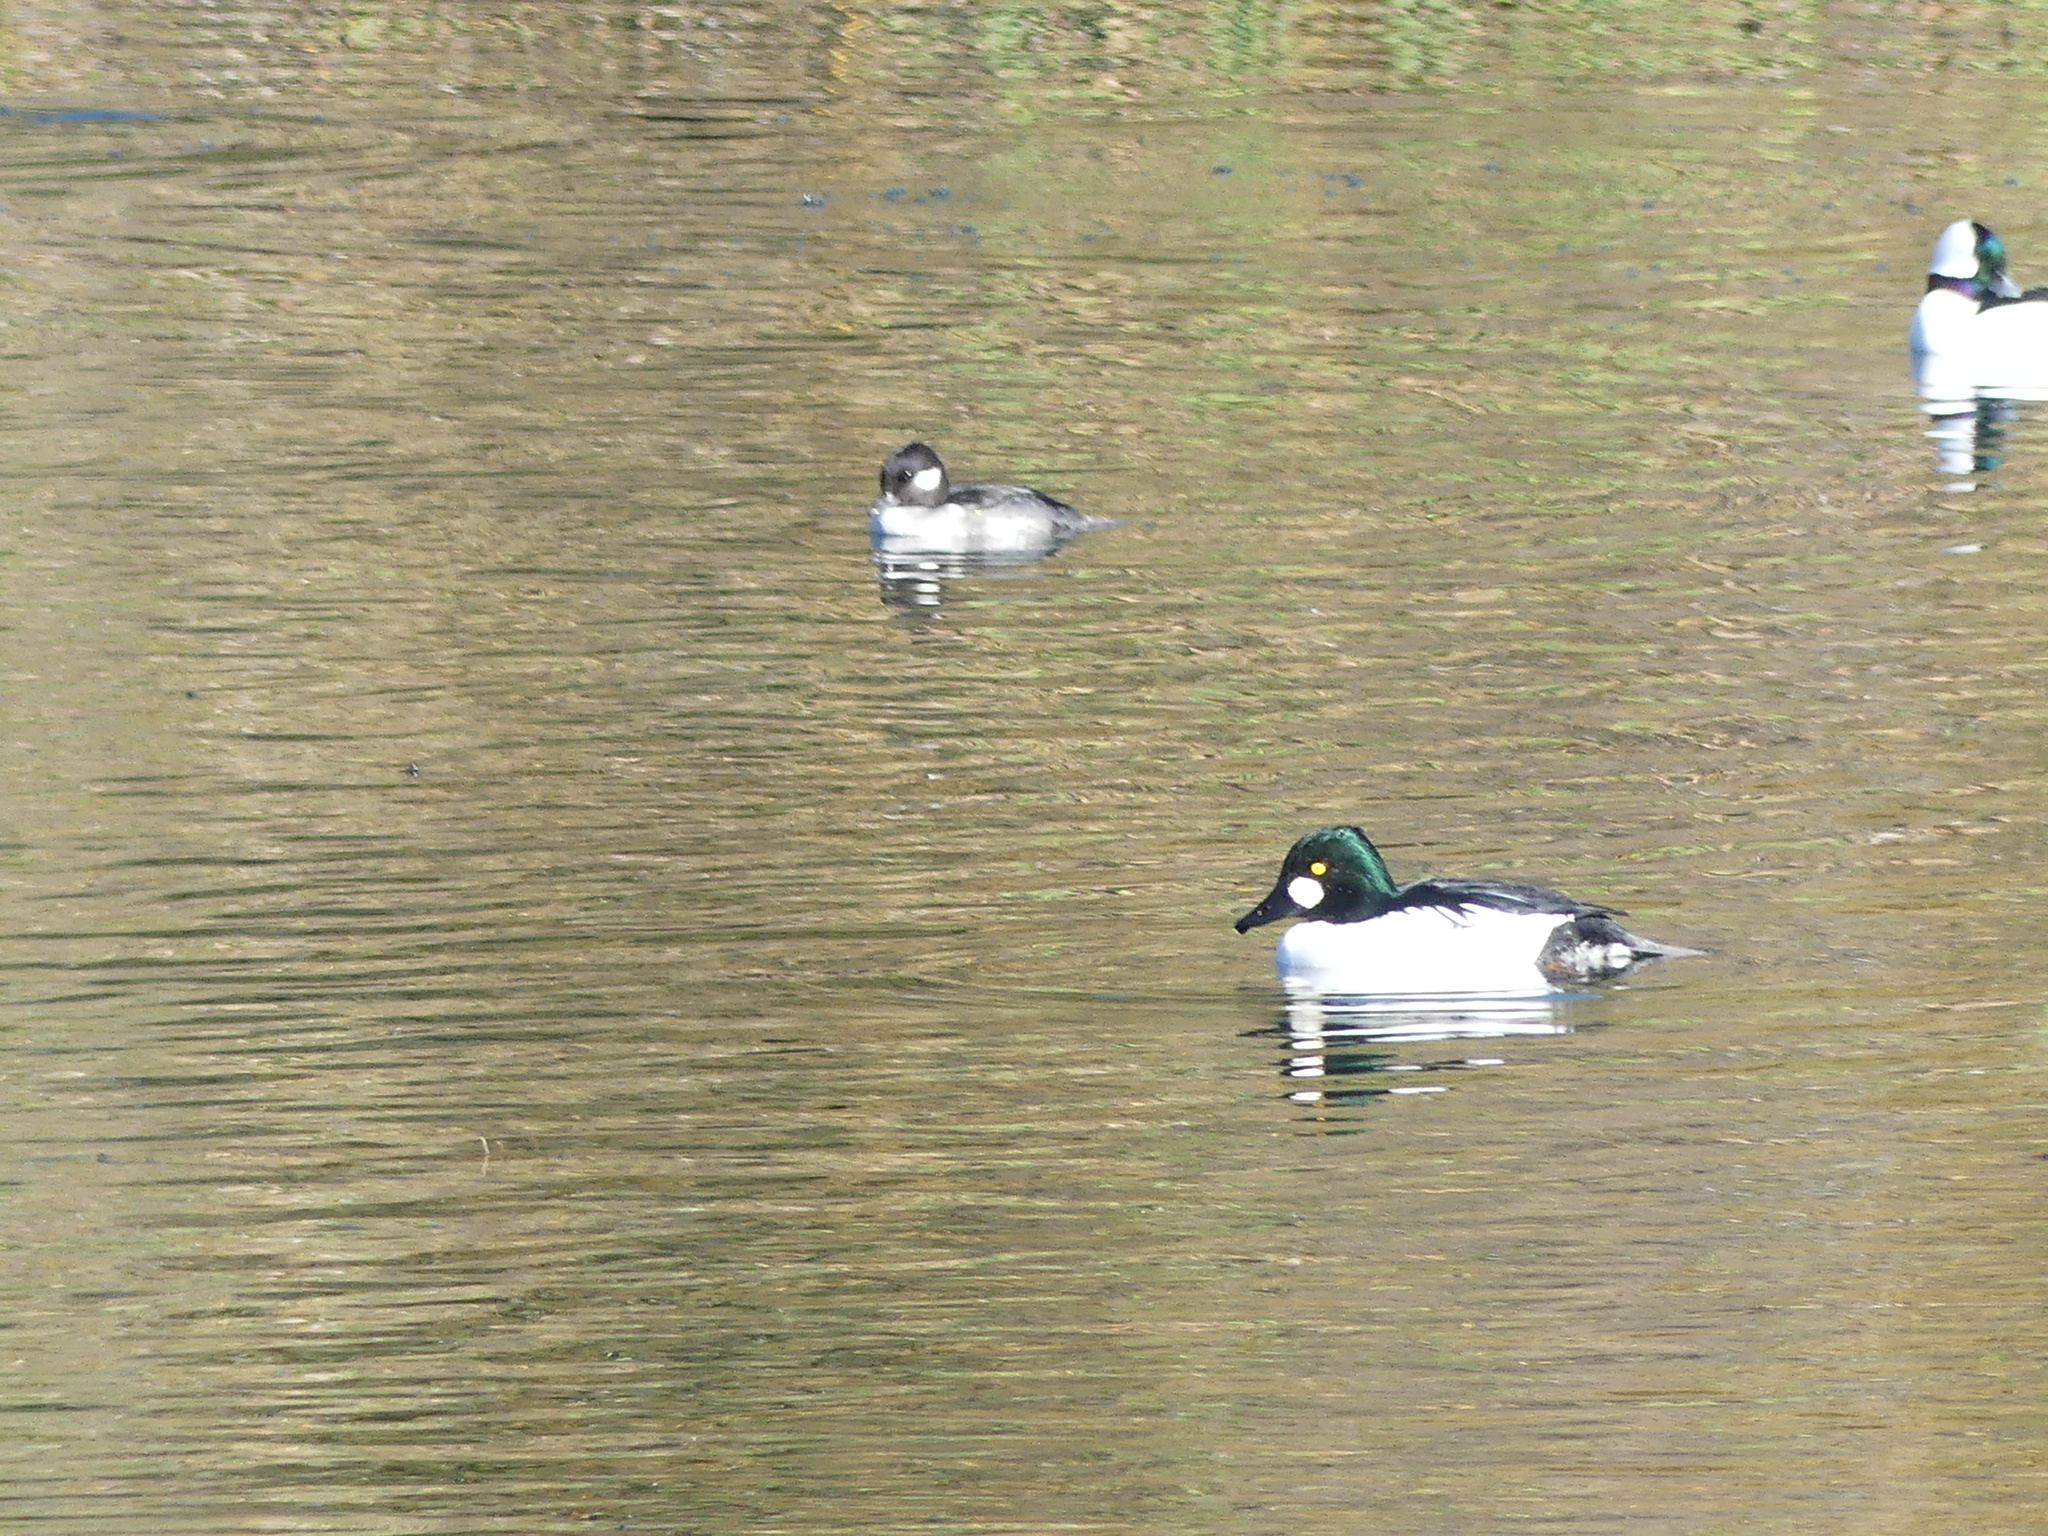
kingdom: Animalia
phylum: Chordata
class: Aves
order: Anseriformes
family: Anatidae
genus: Bucephala
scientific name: Bucephala clangula
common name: Common goldeneye
